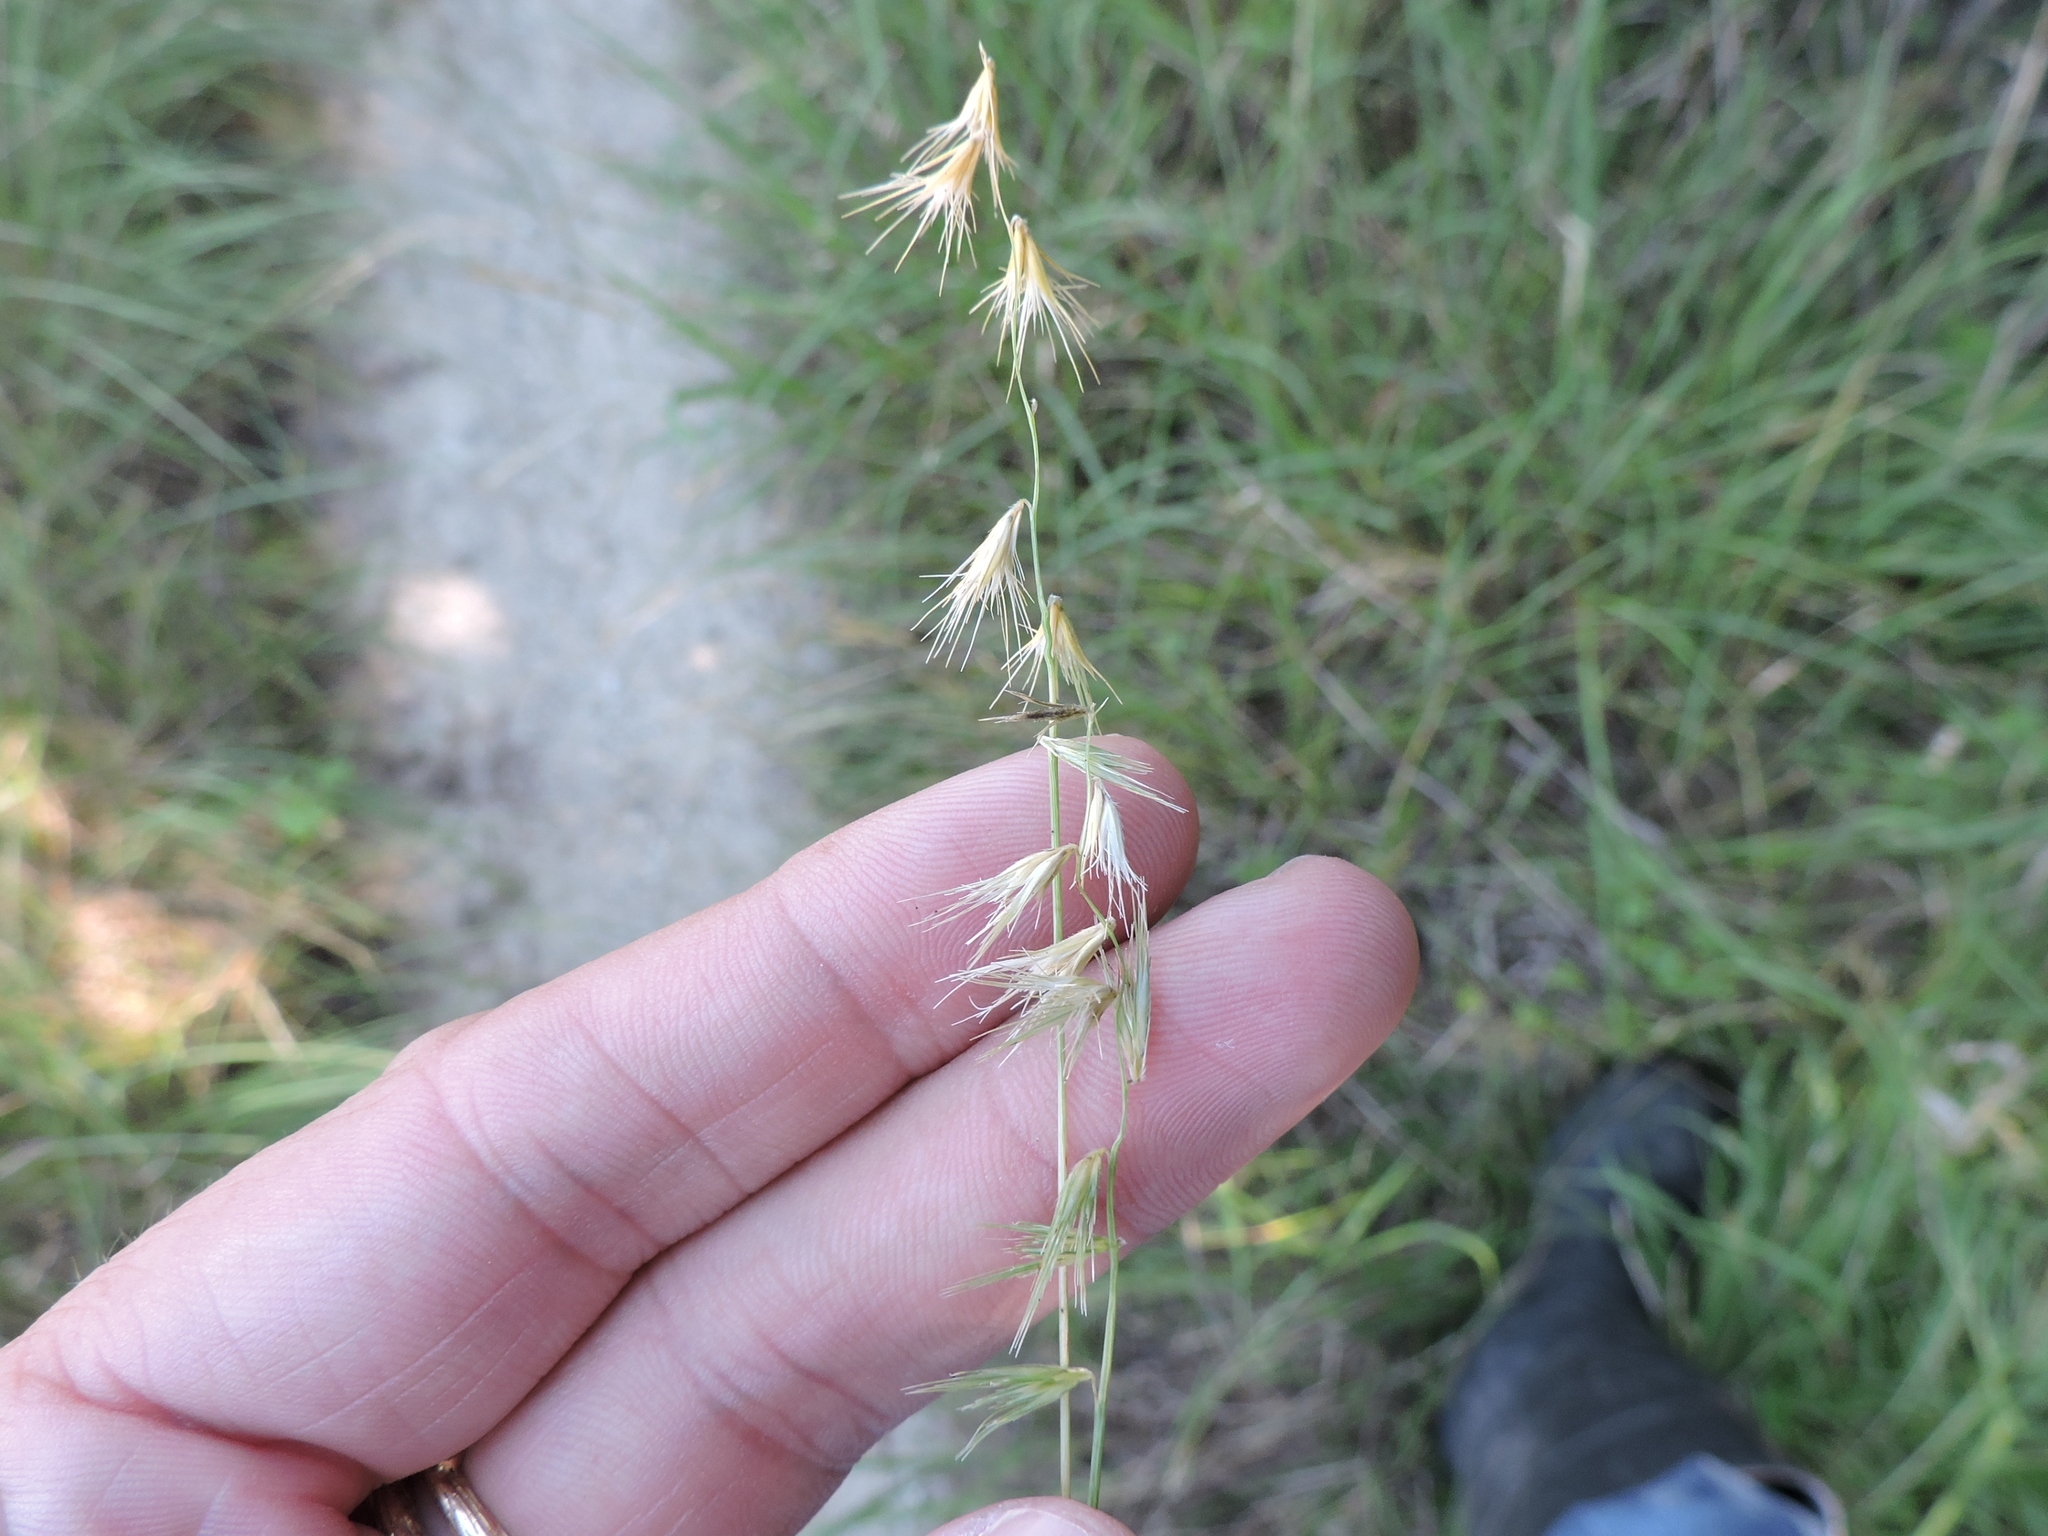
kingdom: Plantae
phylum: Tracheophyta
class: Liliopsida
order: Poales
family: Poaceae
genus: Bouteloua
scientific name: Bouteloua rigidiseta
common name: Texas grama
